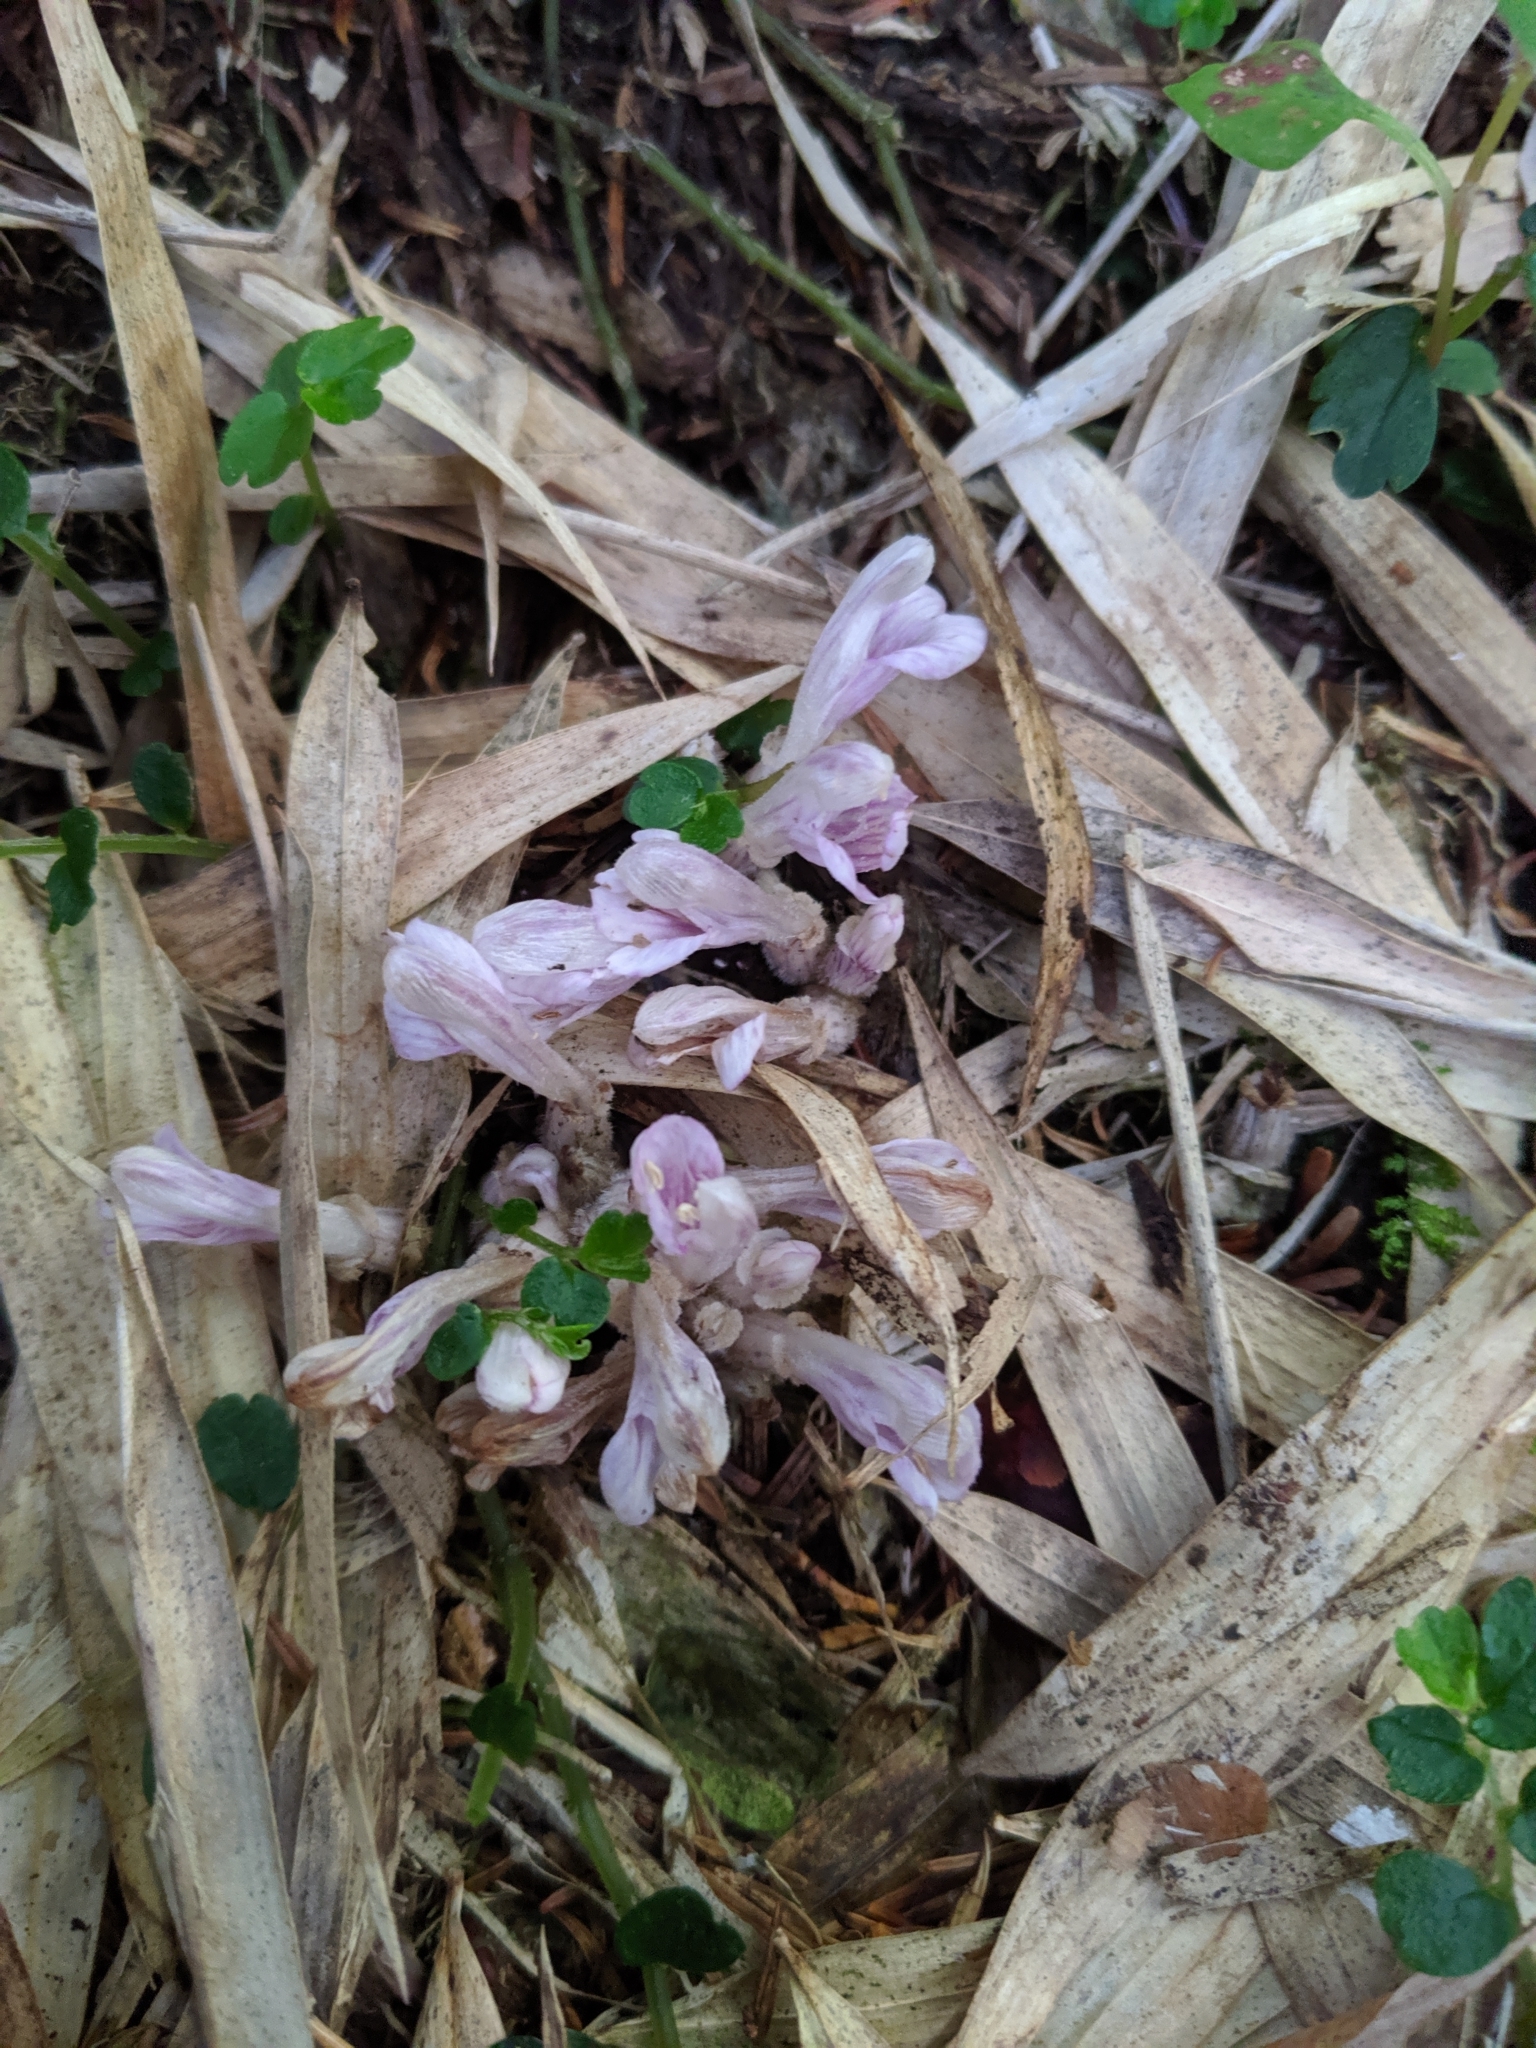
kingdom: Plantae
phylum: Tracheophyta
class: Magnoliopsida
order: Lamiales
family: Orobanchaceae
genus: Lathraea
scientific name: Lathraea purpurea
